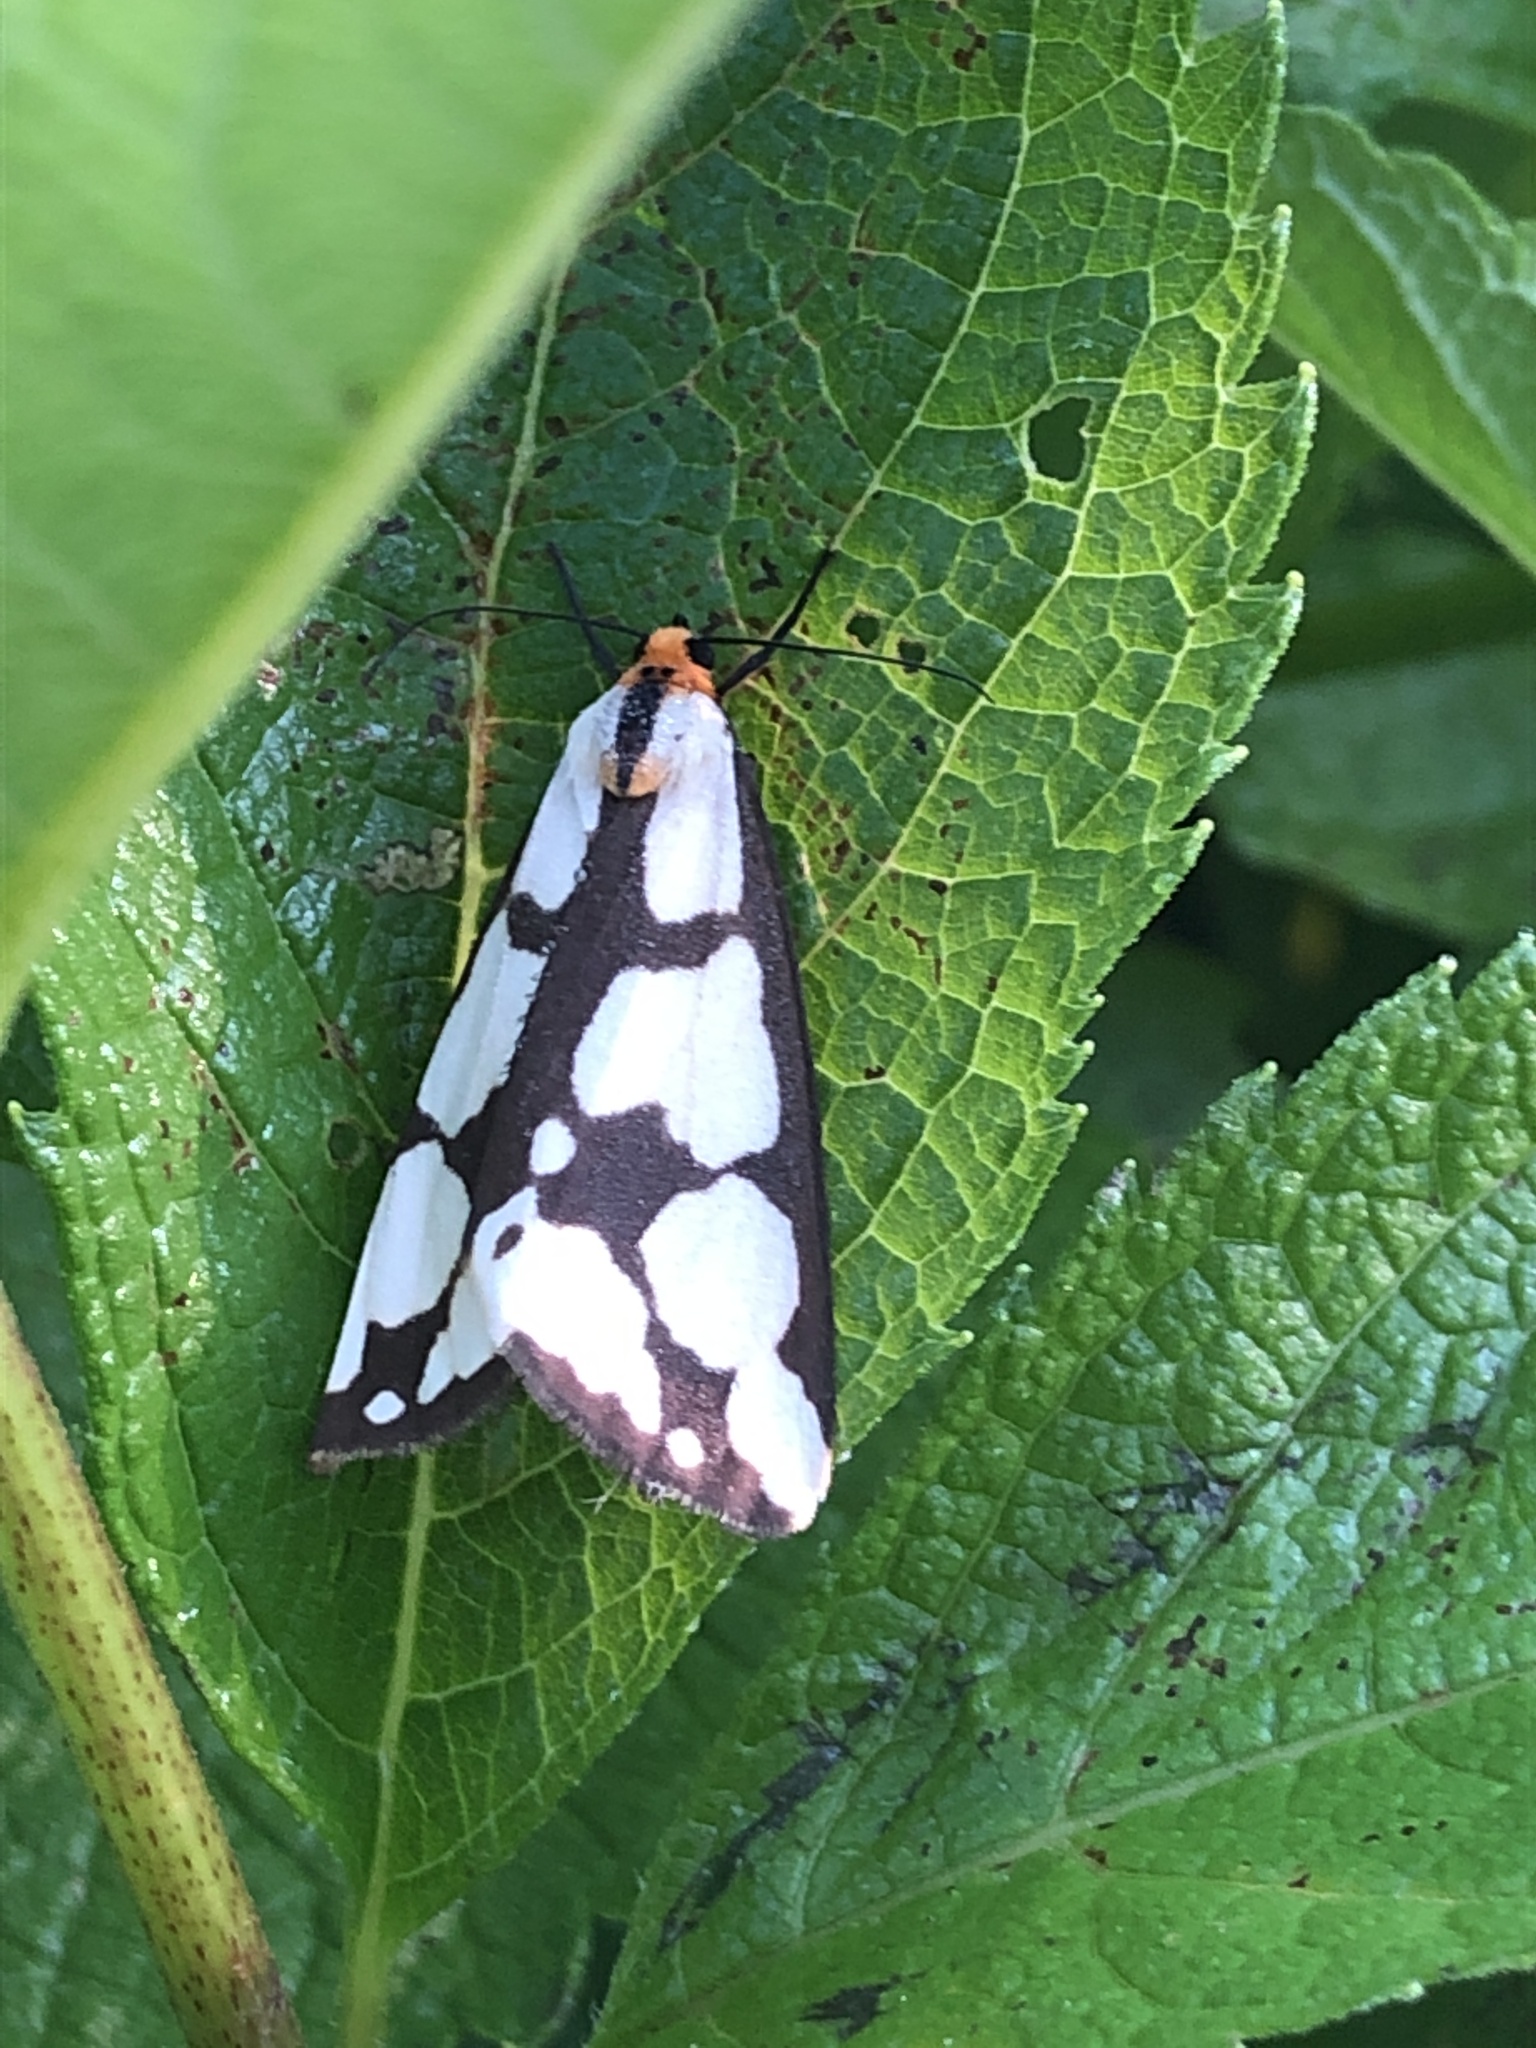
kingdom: Animalia
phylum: Arthropoda
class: Insecta
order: Lepidoptera
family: Erebidae
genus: Haploa
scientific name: Haploa confusa
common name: Confused haploa moth
